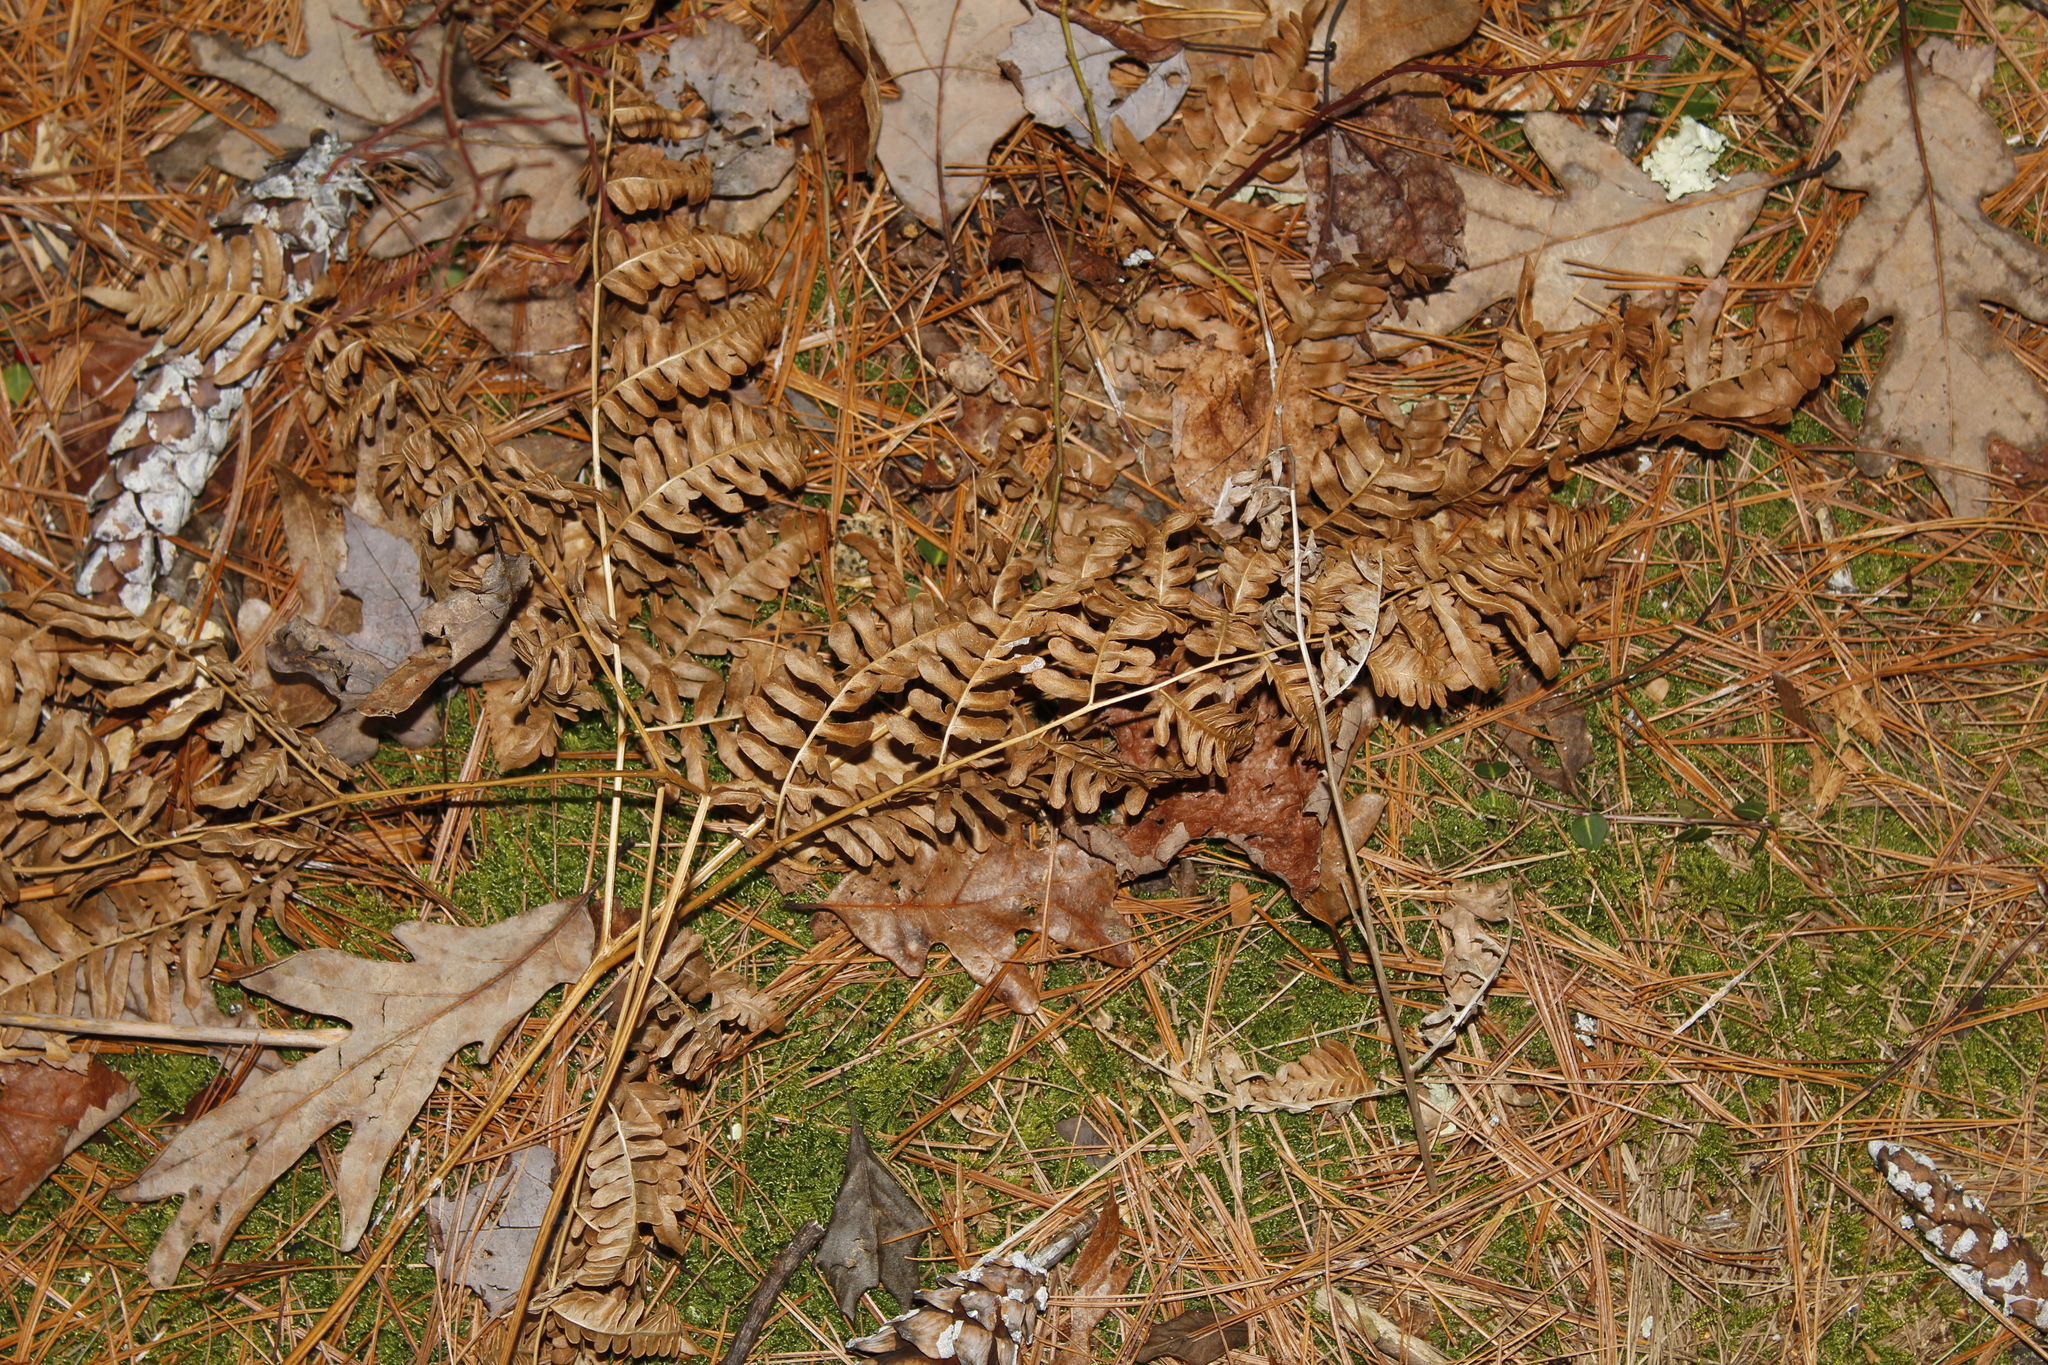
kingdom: Plantae
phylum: Tracheophyta
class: Polypodiopsida
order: Polypodiales
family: Dennstaedtiaceae
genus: Pteridium
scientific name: Pteridium aquilinum
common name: Bracken
